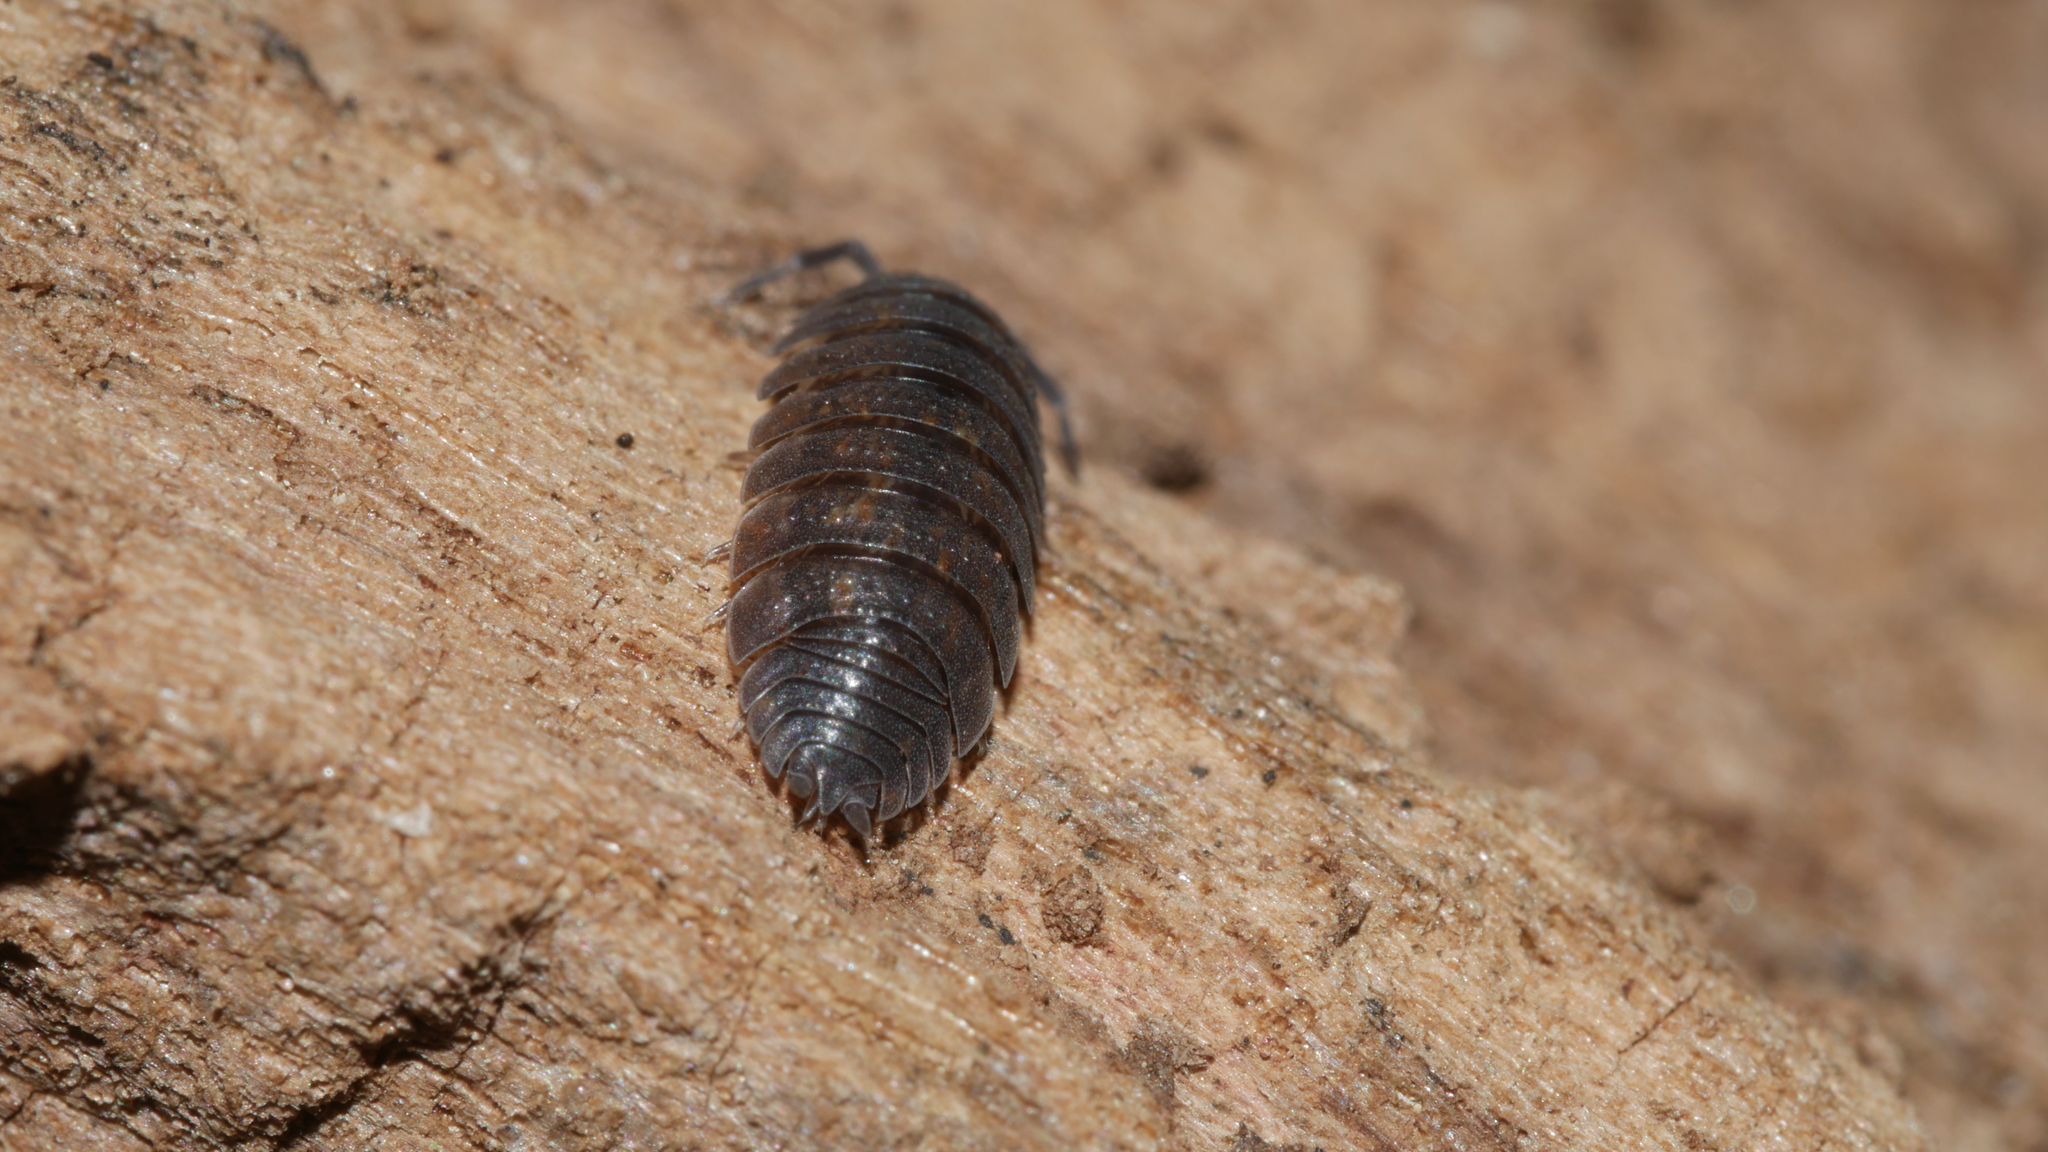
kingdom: Animalia
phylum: Arthropoda
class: Malacostraca
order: Isopoda
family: Porcellionidae
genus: Porcellio
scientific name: Porcellio scaber
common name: Common rough woodlouse
